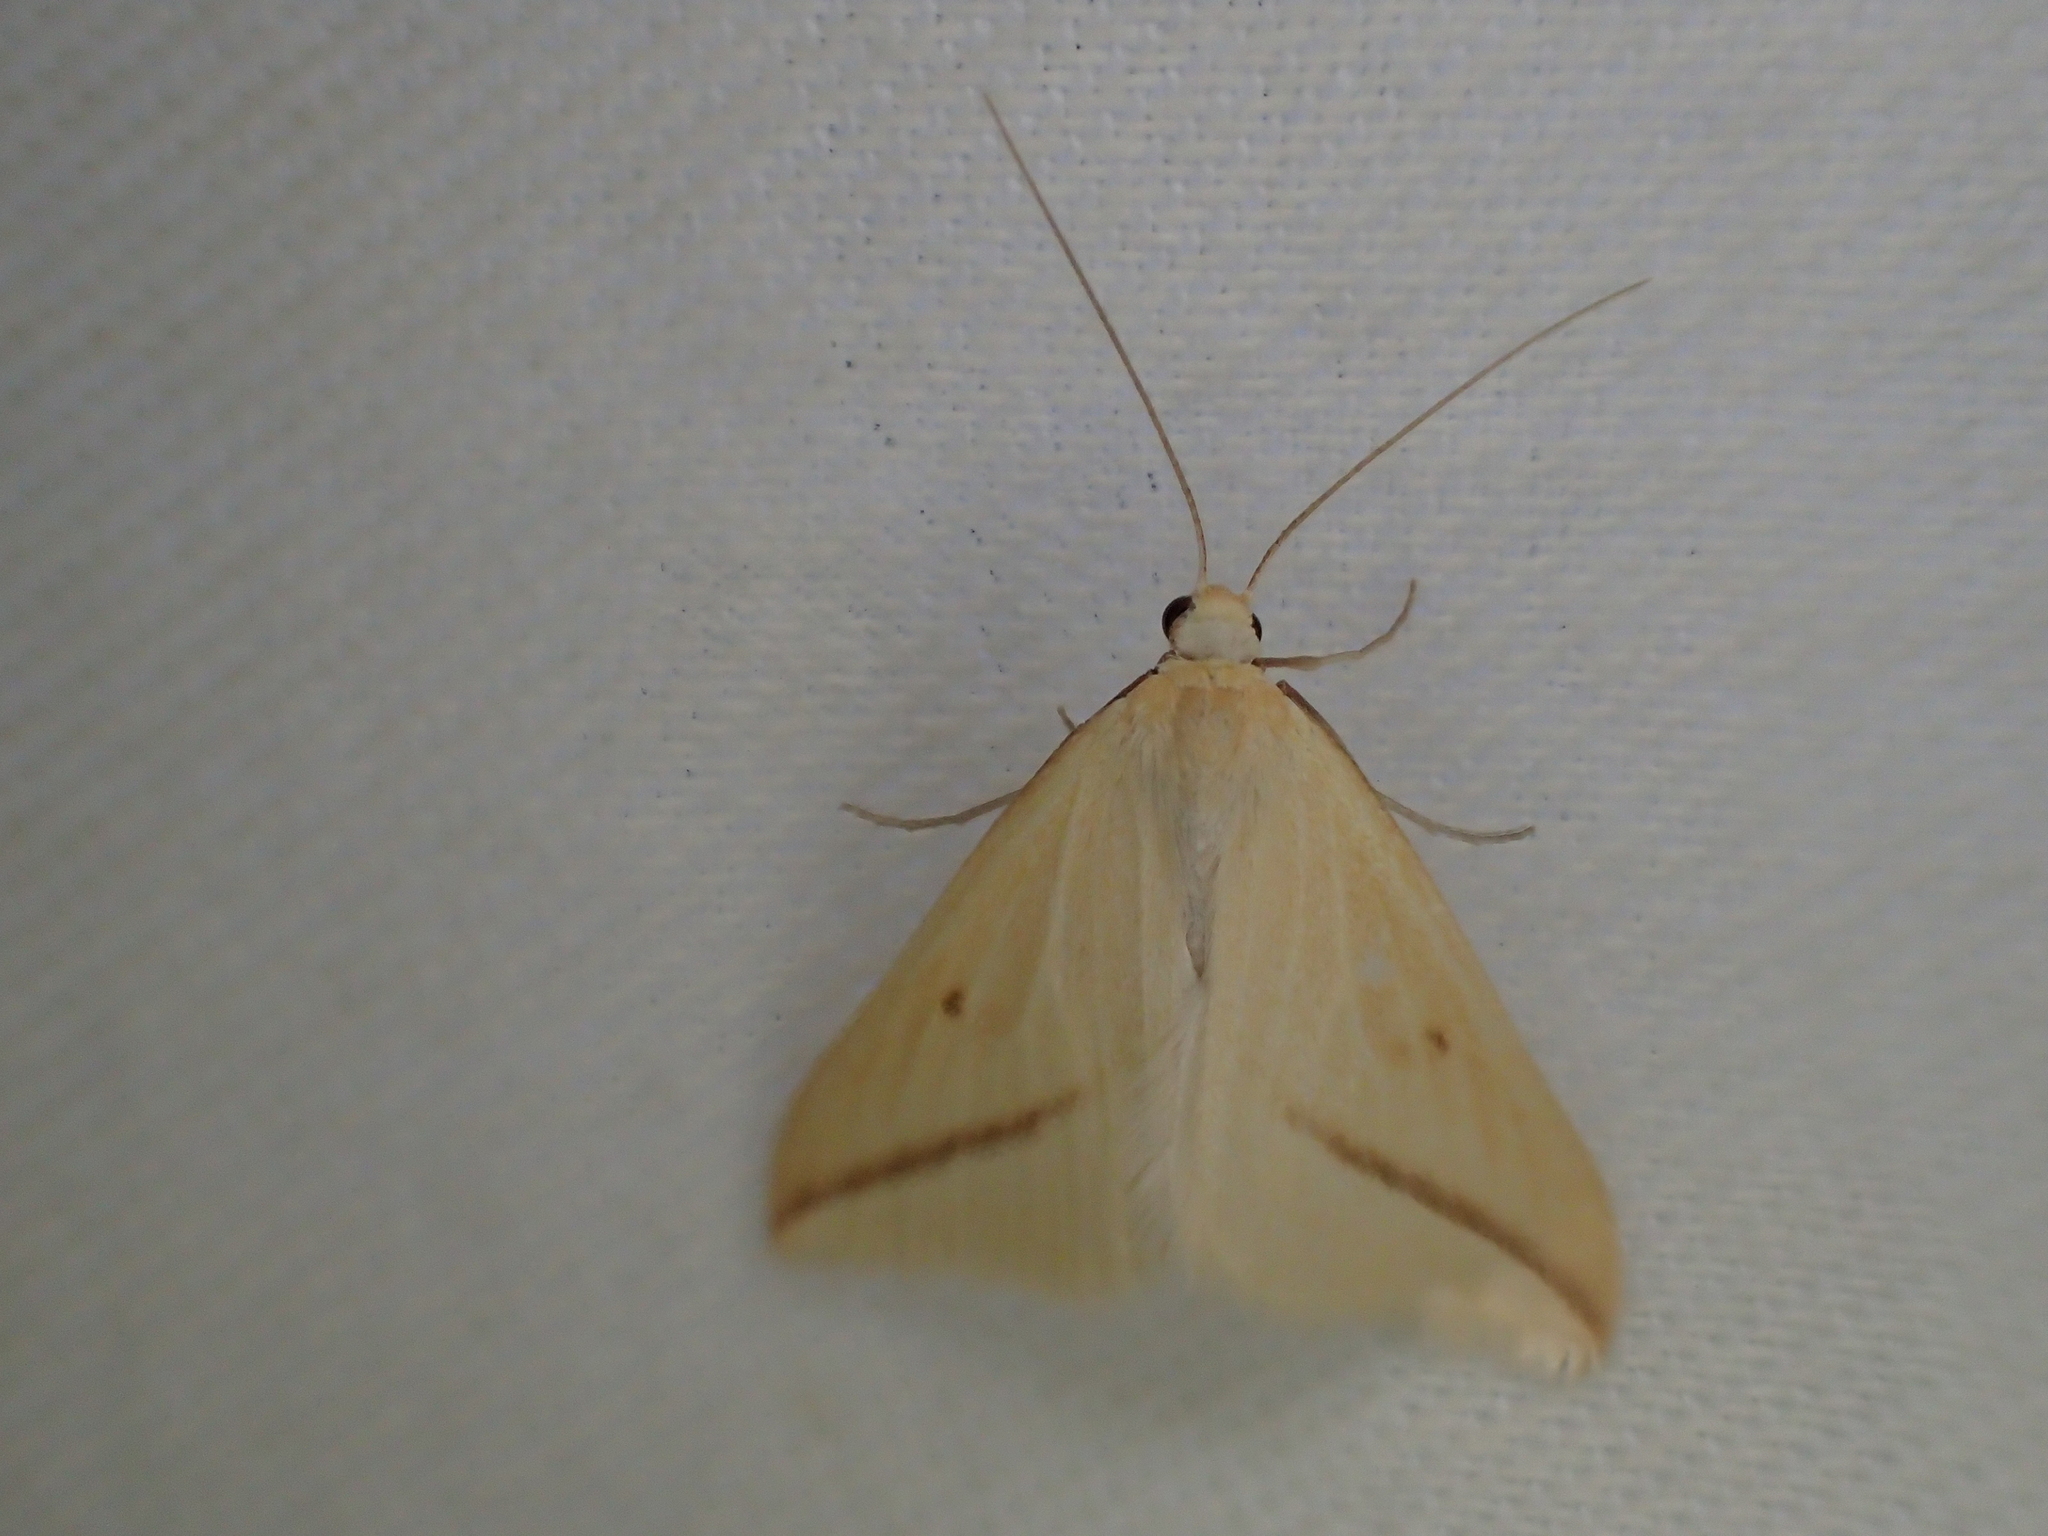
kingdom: Animalia
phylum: Arthropoda
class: Insecta
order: Lepidoptera
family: Geometridae
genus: Rhodometra
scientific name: Rhodometra sacraria
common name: Vestal
